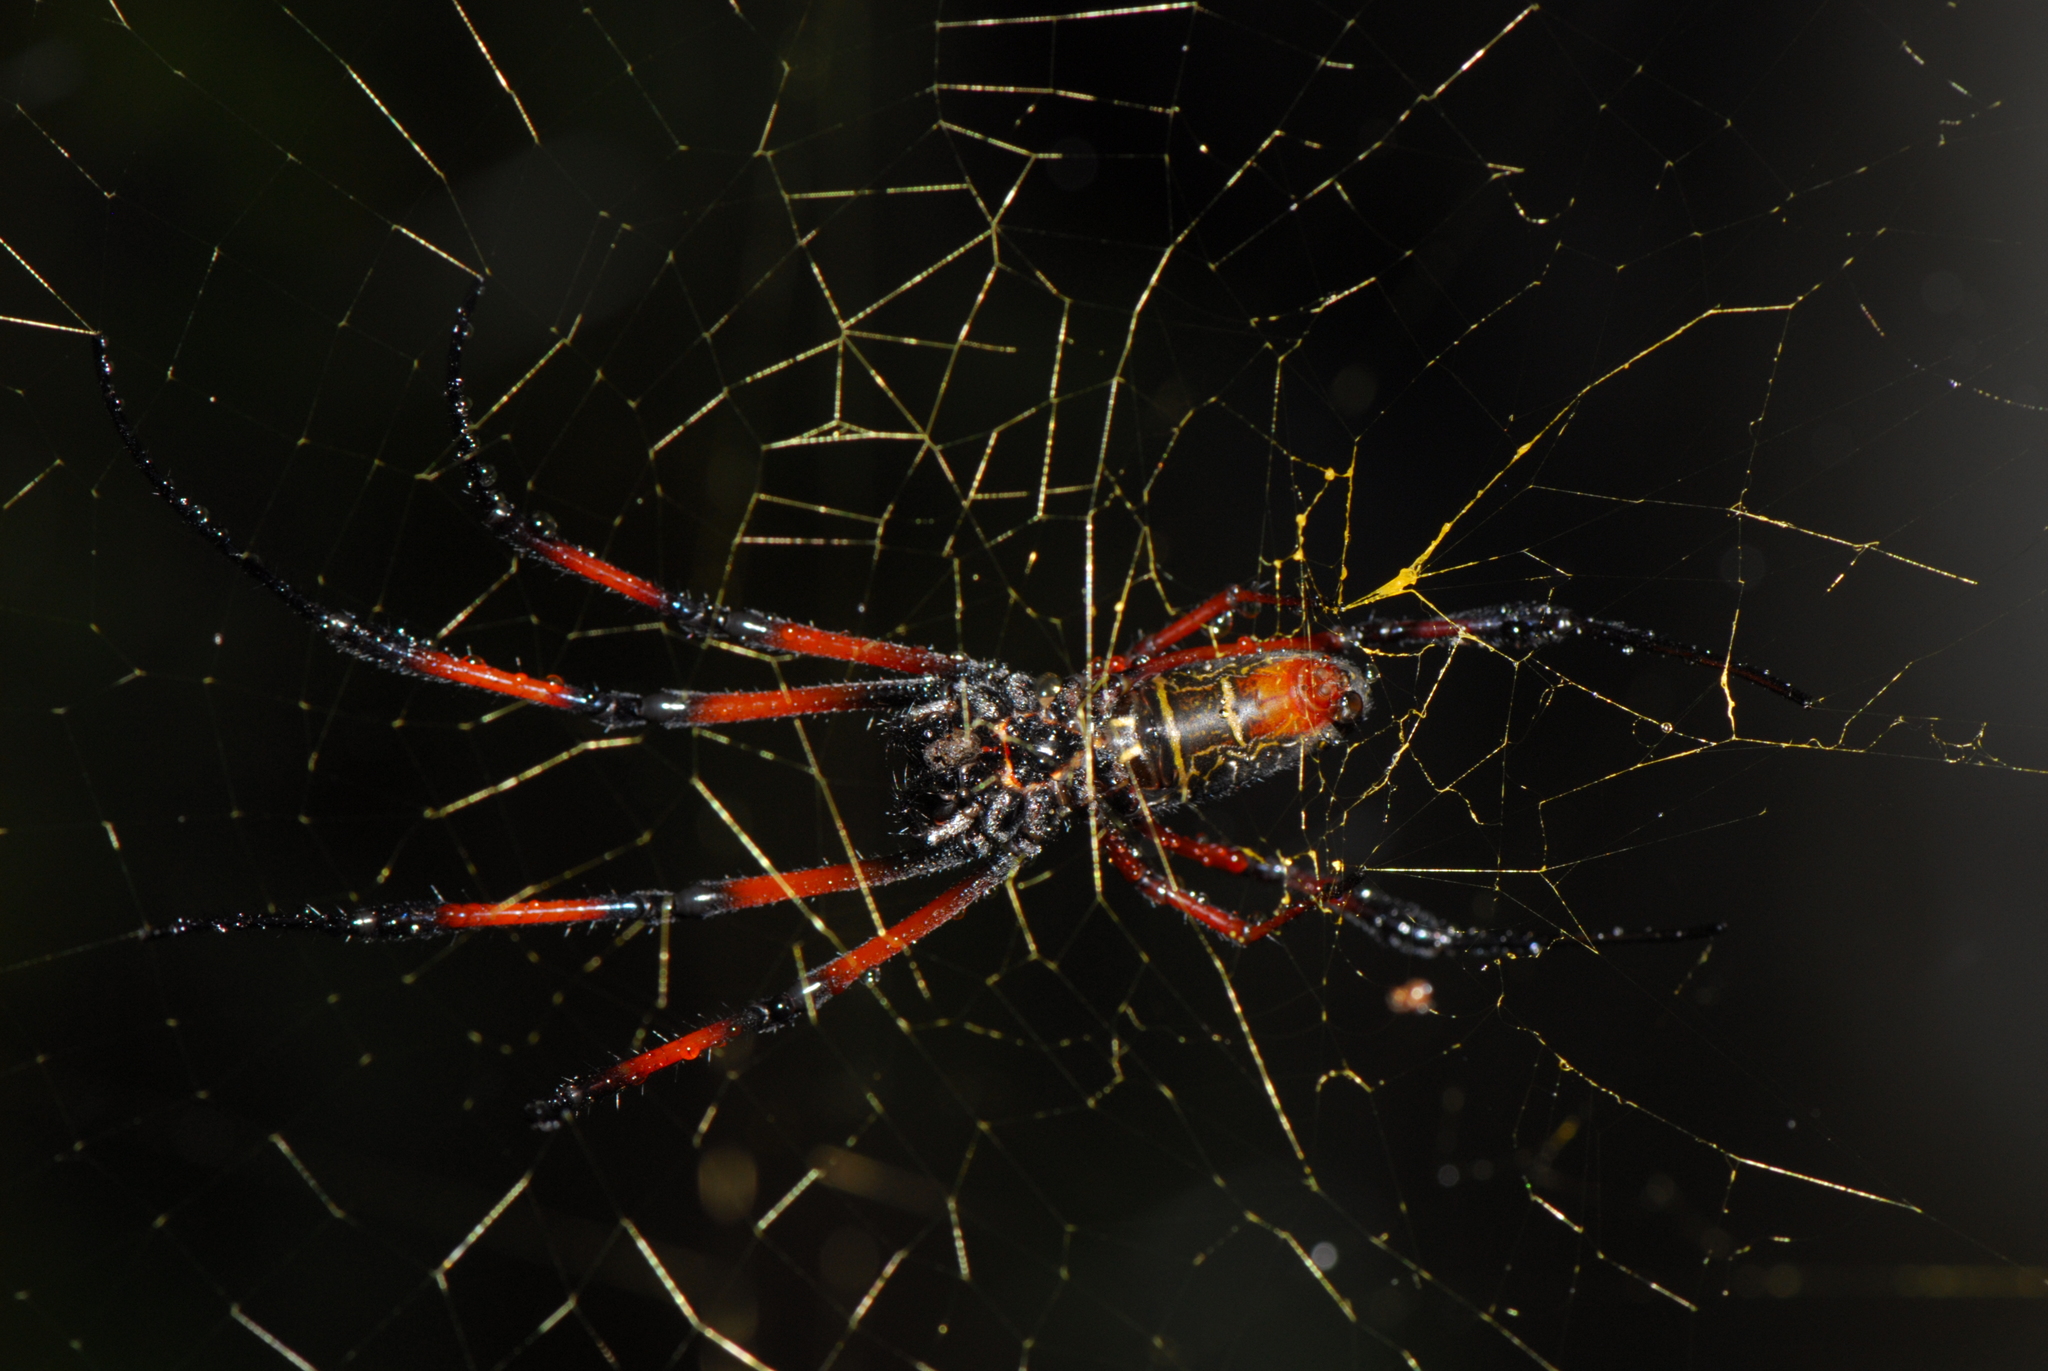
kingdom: Animalia
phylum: Arthropoda
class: Arachnida
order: Araneae
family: Araneidae
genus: Trichonephila
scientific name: Trichonephila inaurata
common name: Red-legged golden orb weaver
